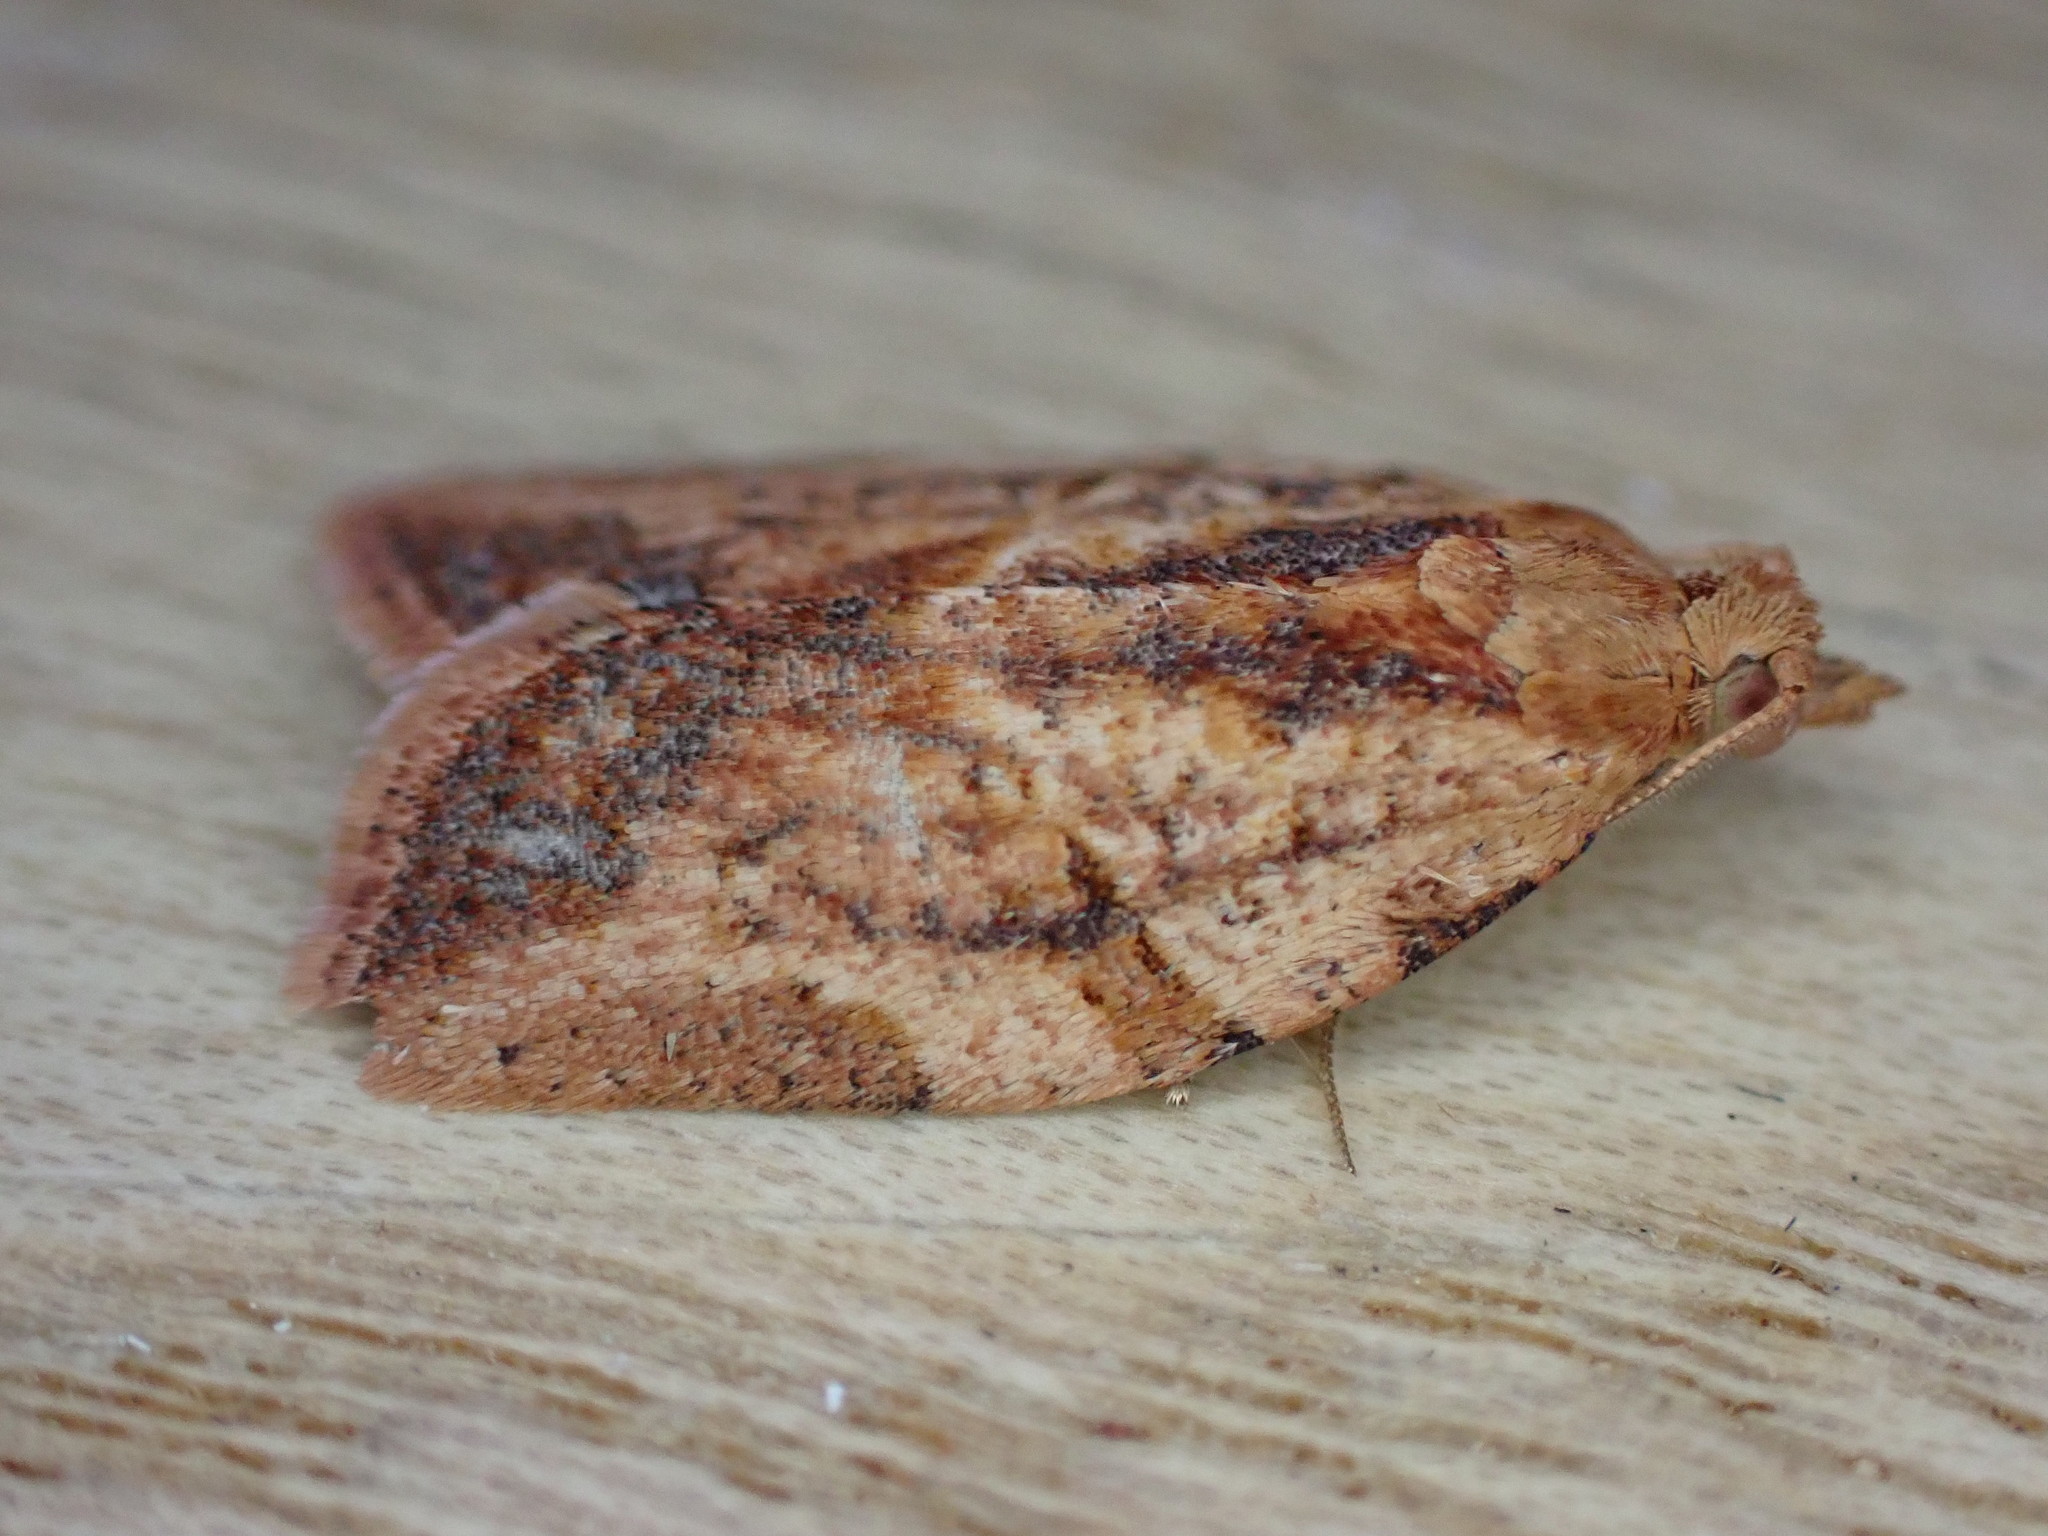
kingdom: Animalia
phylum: Arthropoda
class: Insecta
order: Lepidoptera
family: Tortricidae
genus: Epiphyas
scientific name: Epiphyas postvittana
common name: Light brown apple moth
